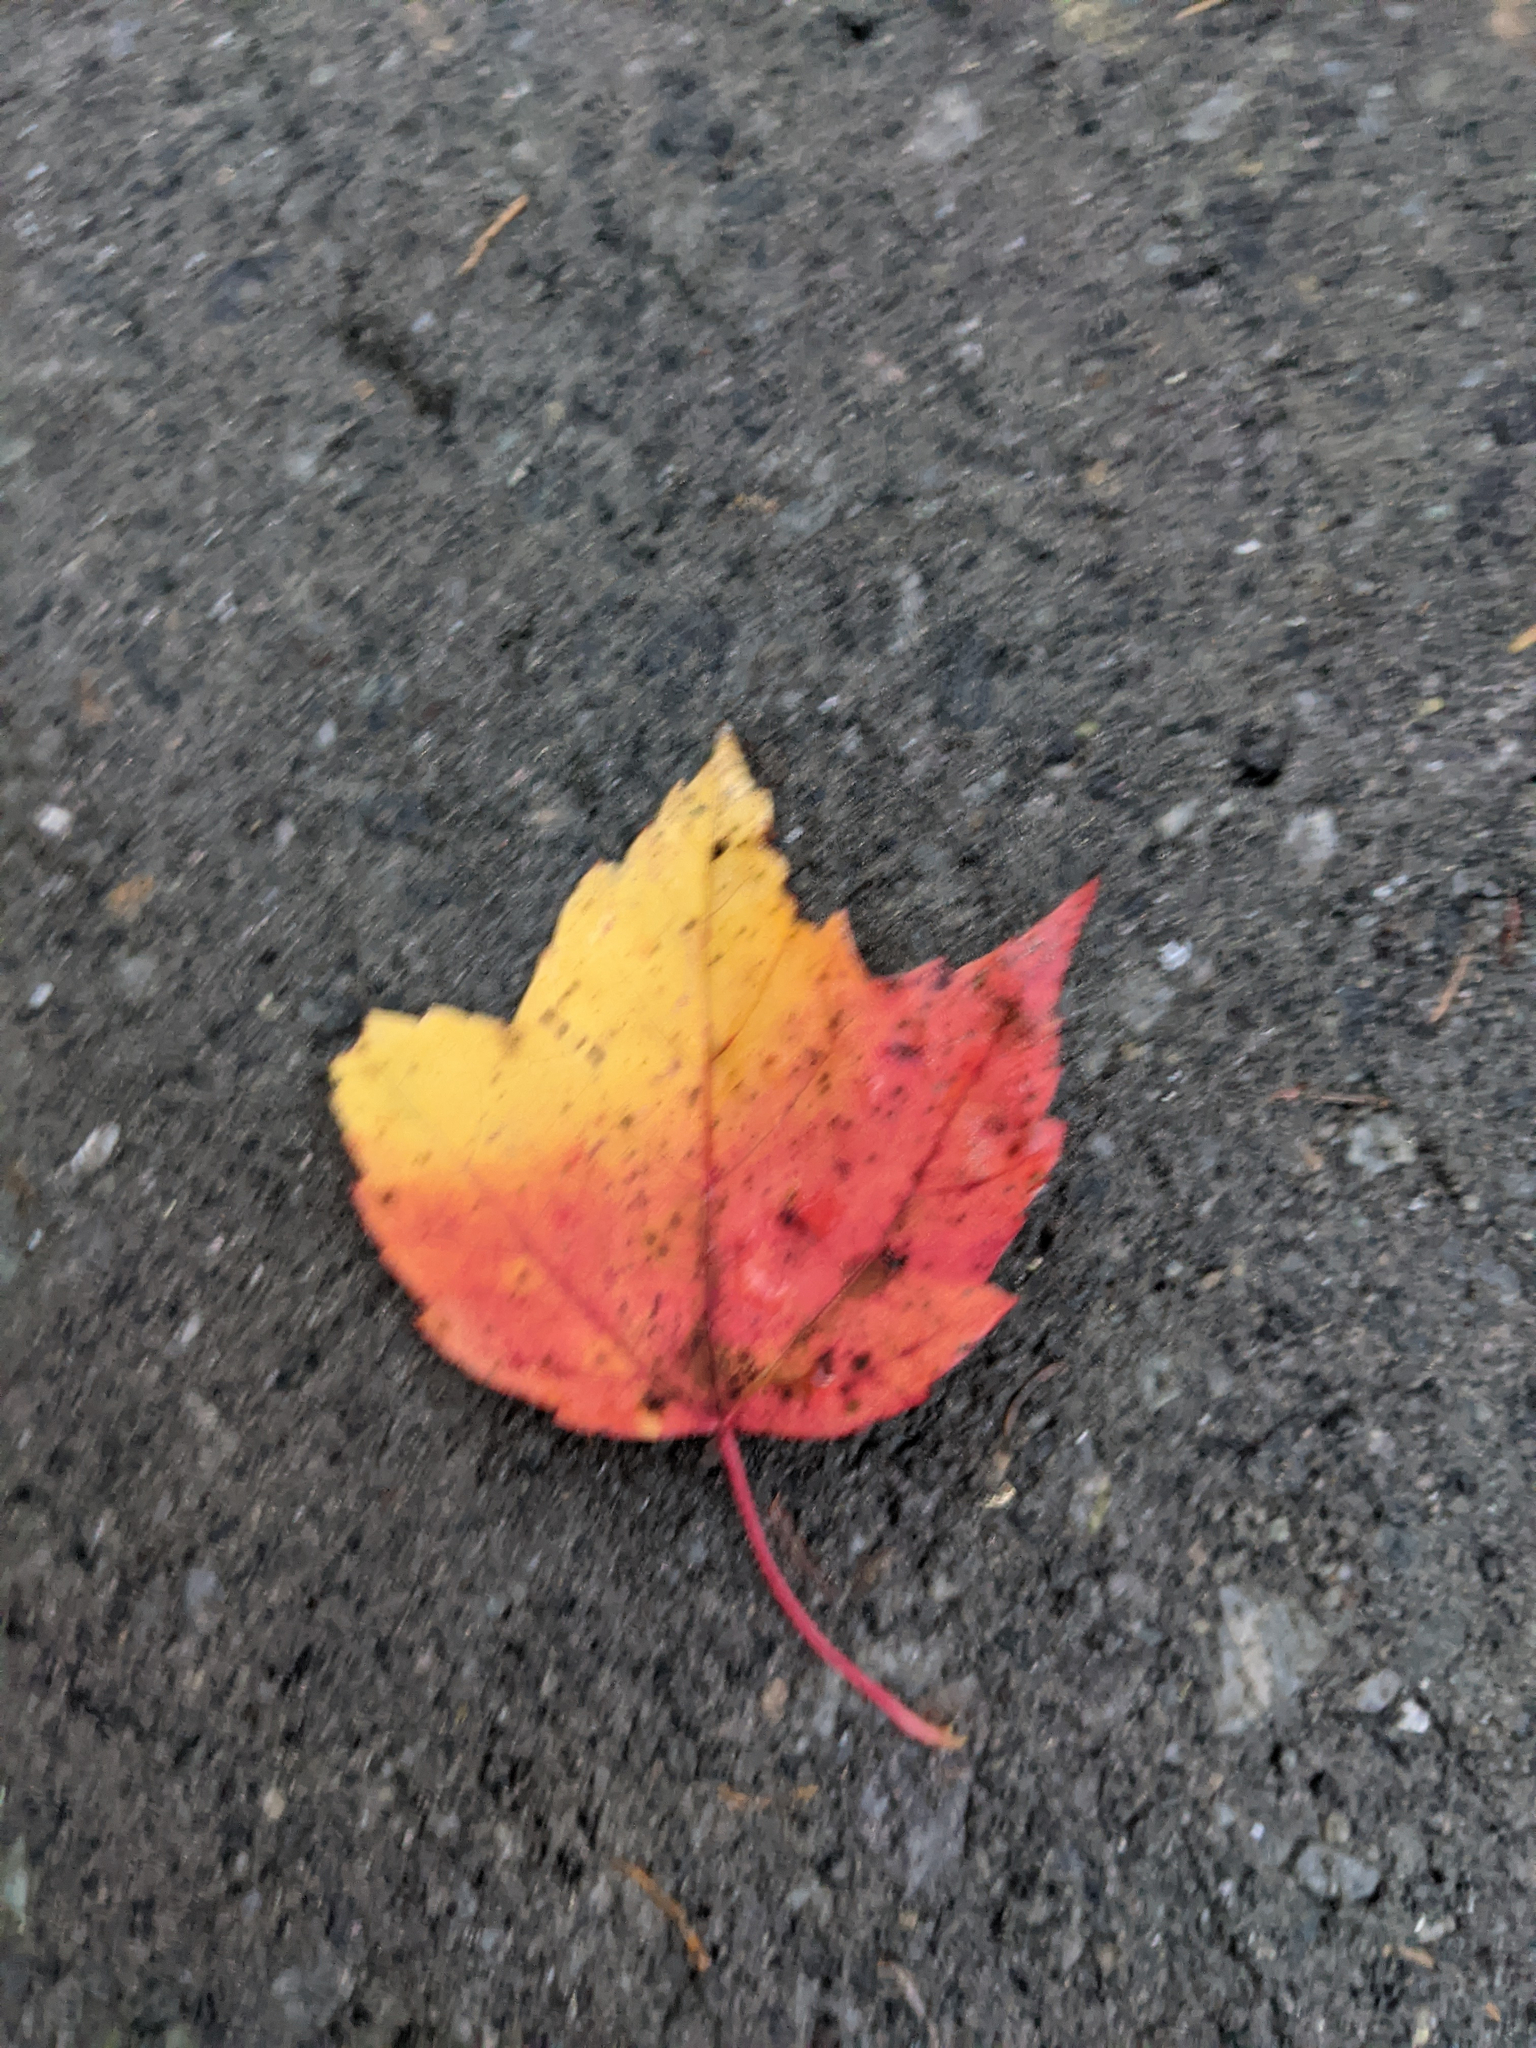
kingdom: Plantae
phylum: Tracheophyta
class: Magnoliopsida
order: Sapindales
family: Sapindaceae
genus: Acer
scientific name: Acer rubrum
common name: Red maple
